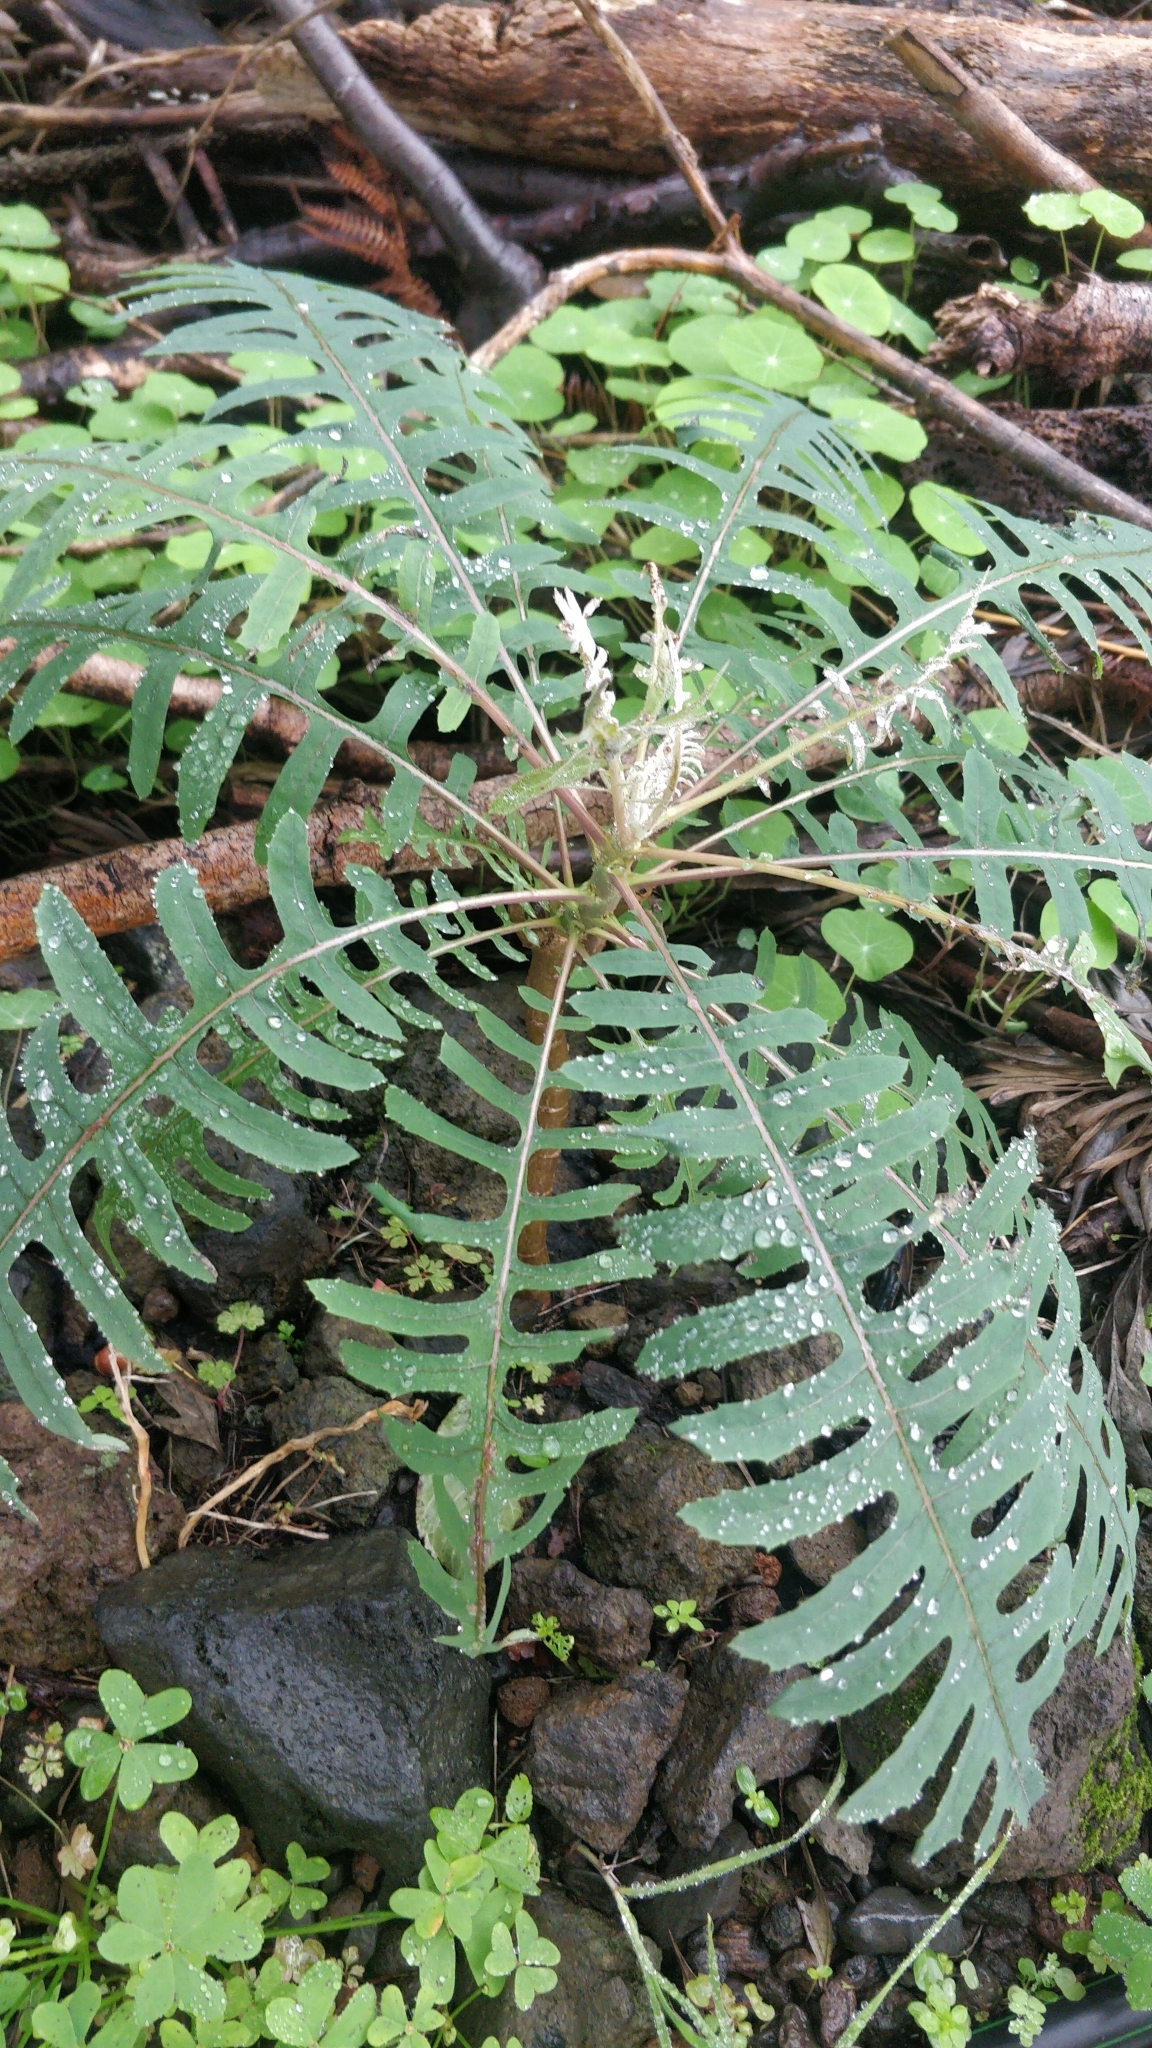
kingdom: Plantae
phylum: Tracheophyta
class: Magnoliopsida
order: Asterales
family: Asteraceae
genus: Sonchus
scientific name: Sonchus palmensis
